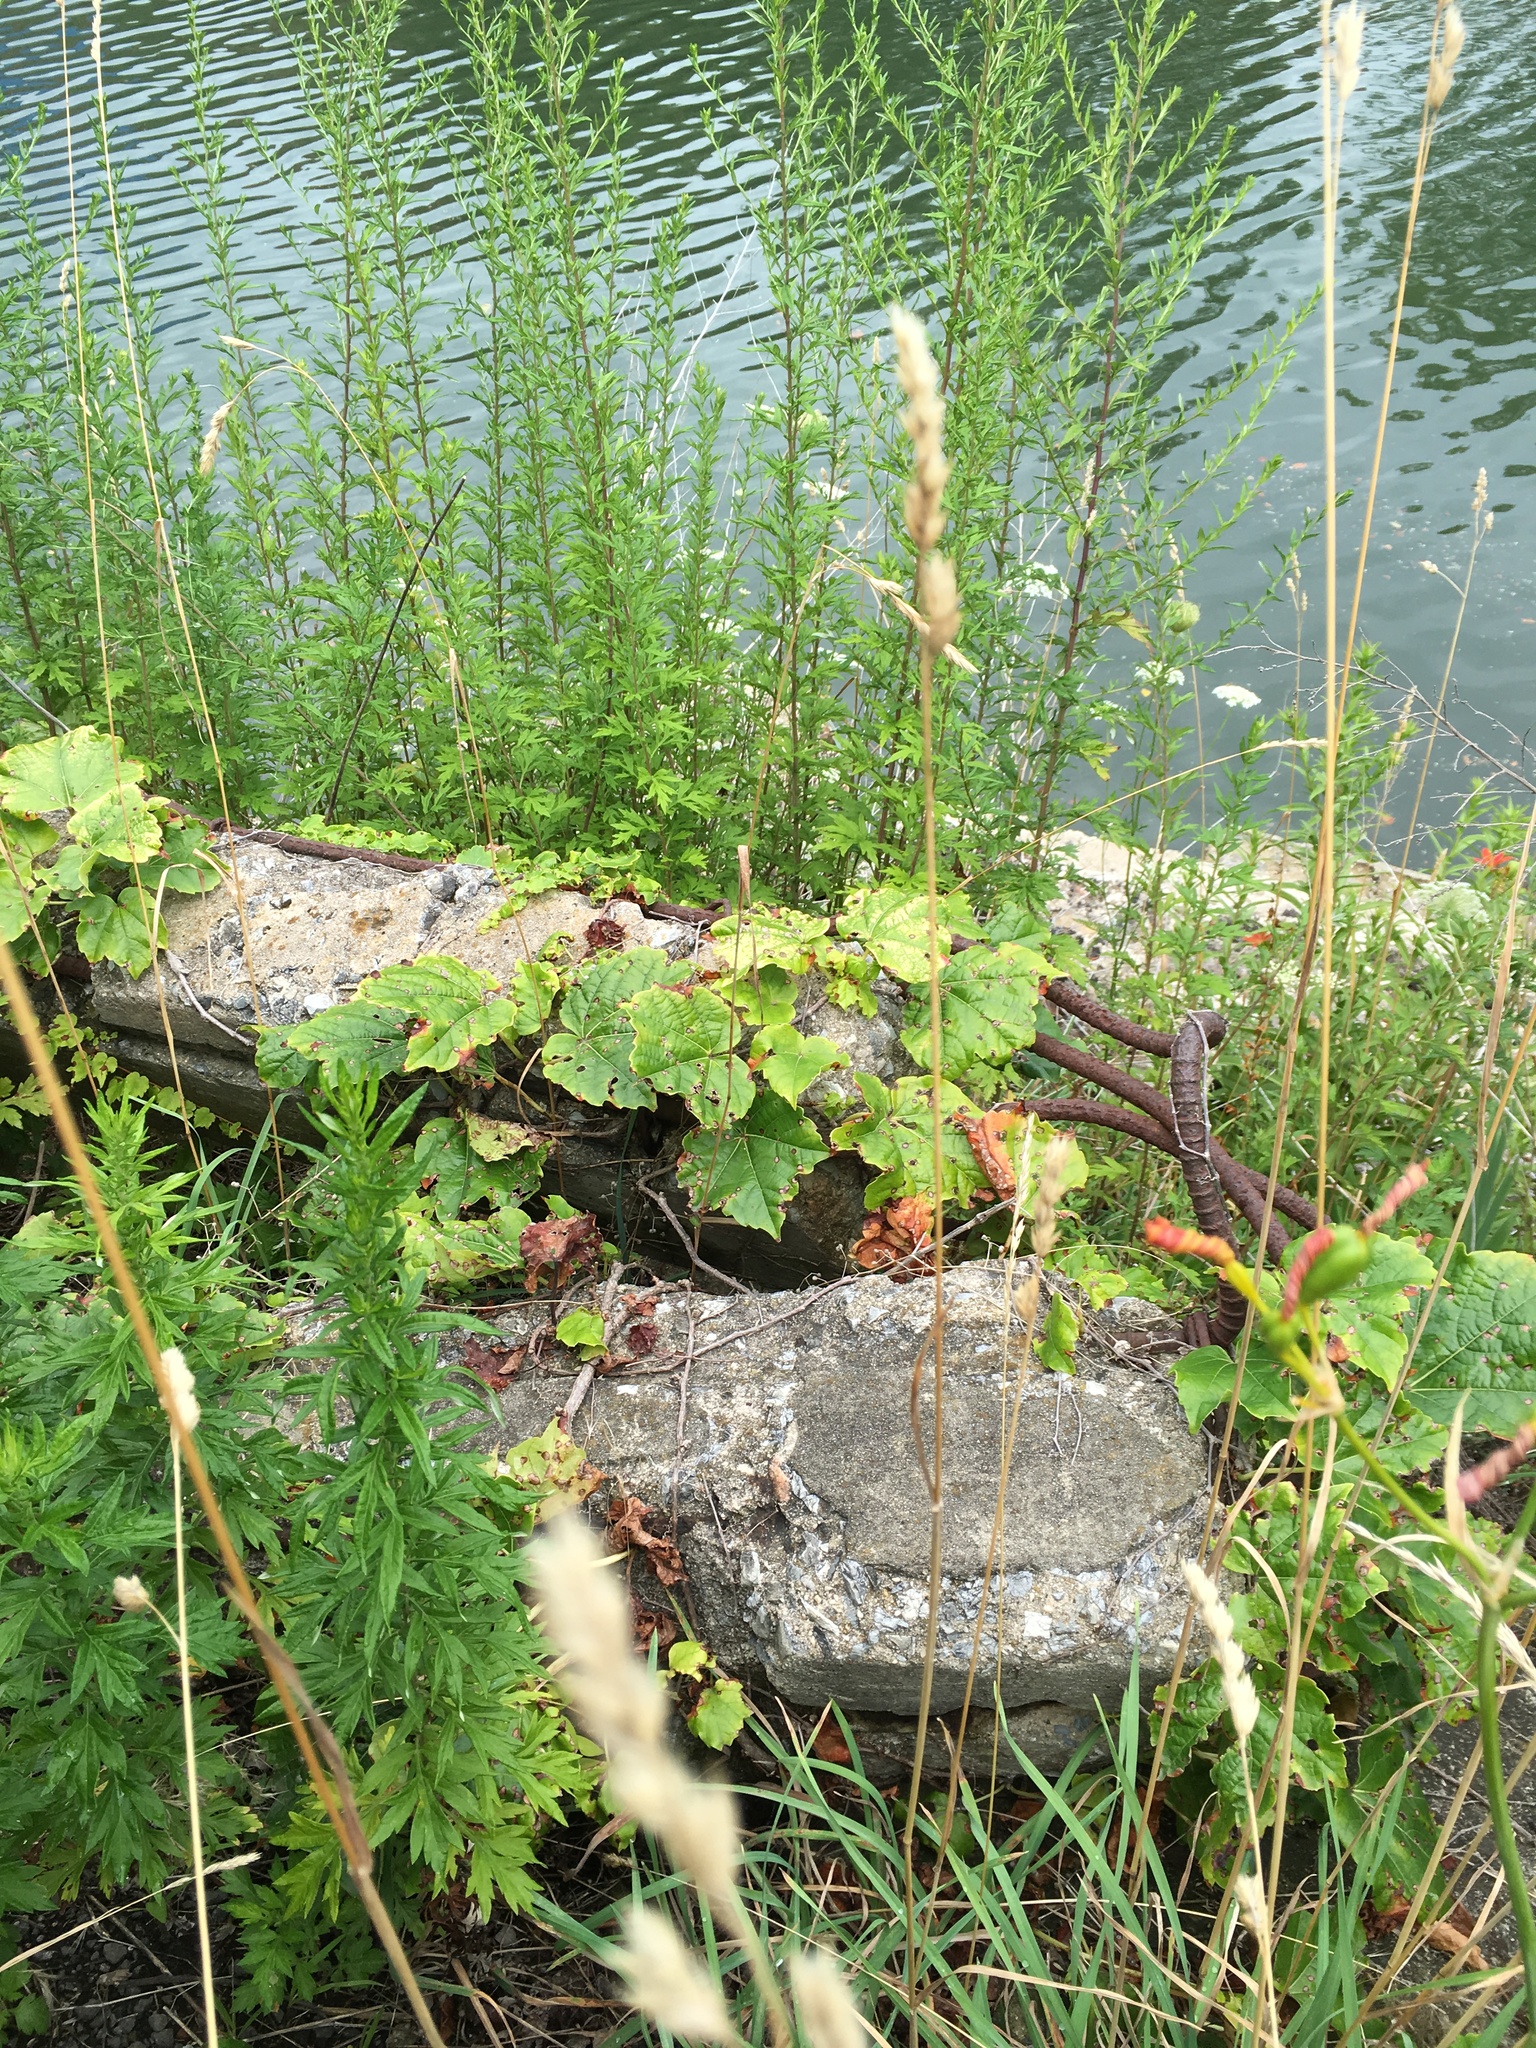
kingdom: Plantae
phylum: Tracheophyta
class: Magnoliopsida
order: Vitales
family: Vitaceae
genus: Parthenocissus
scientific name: Parthenocissus tricuspidata
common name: Boston ivy
